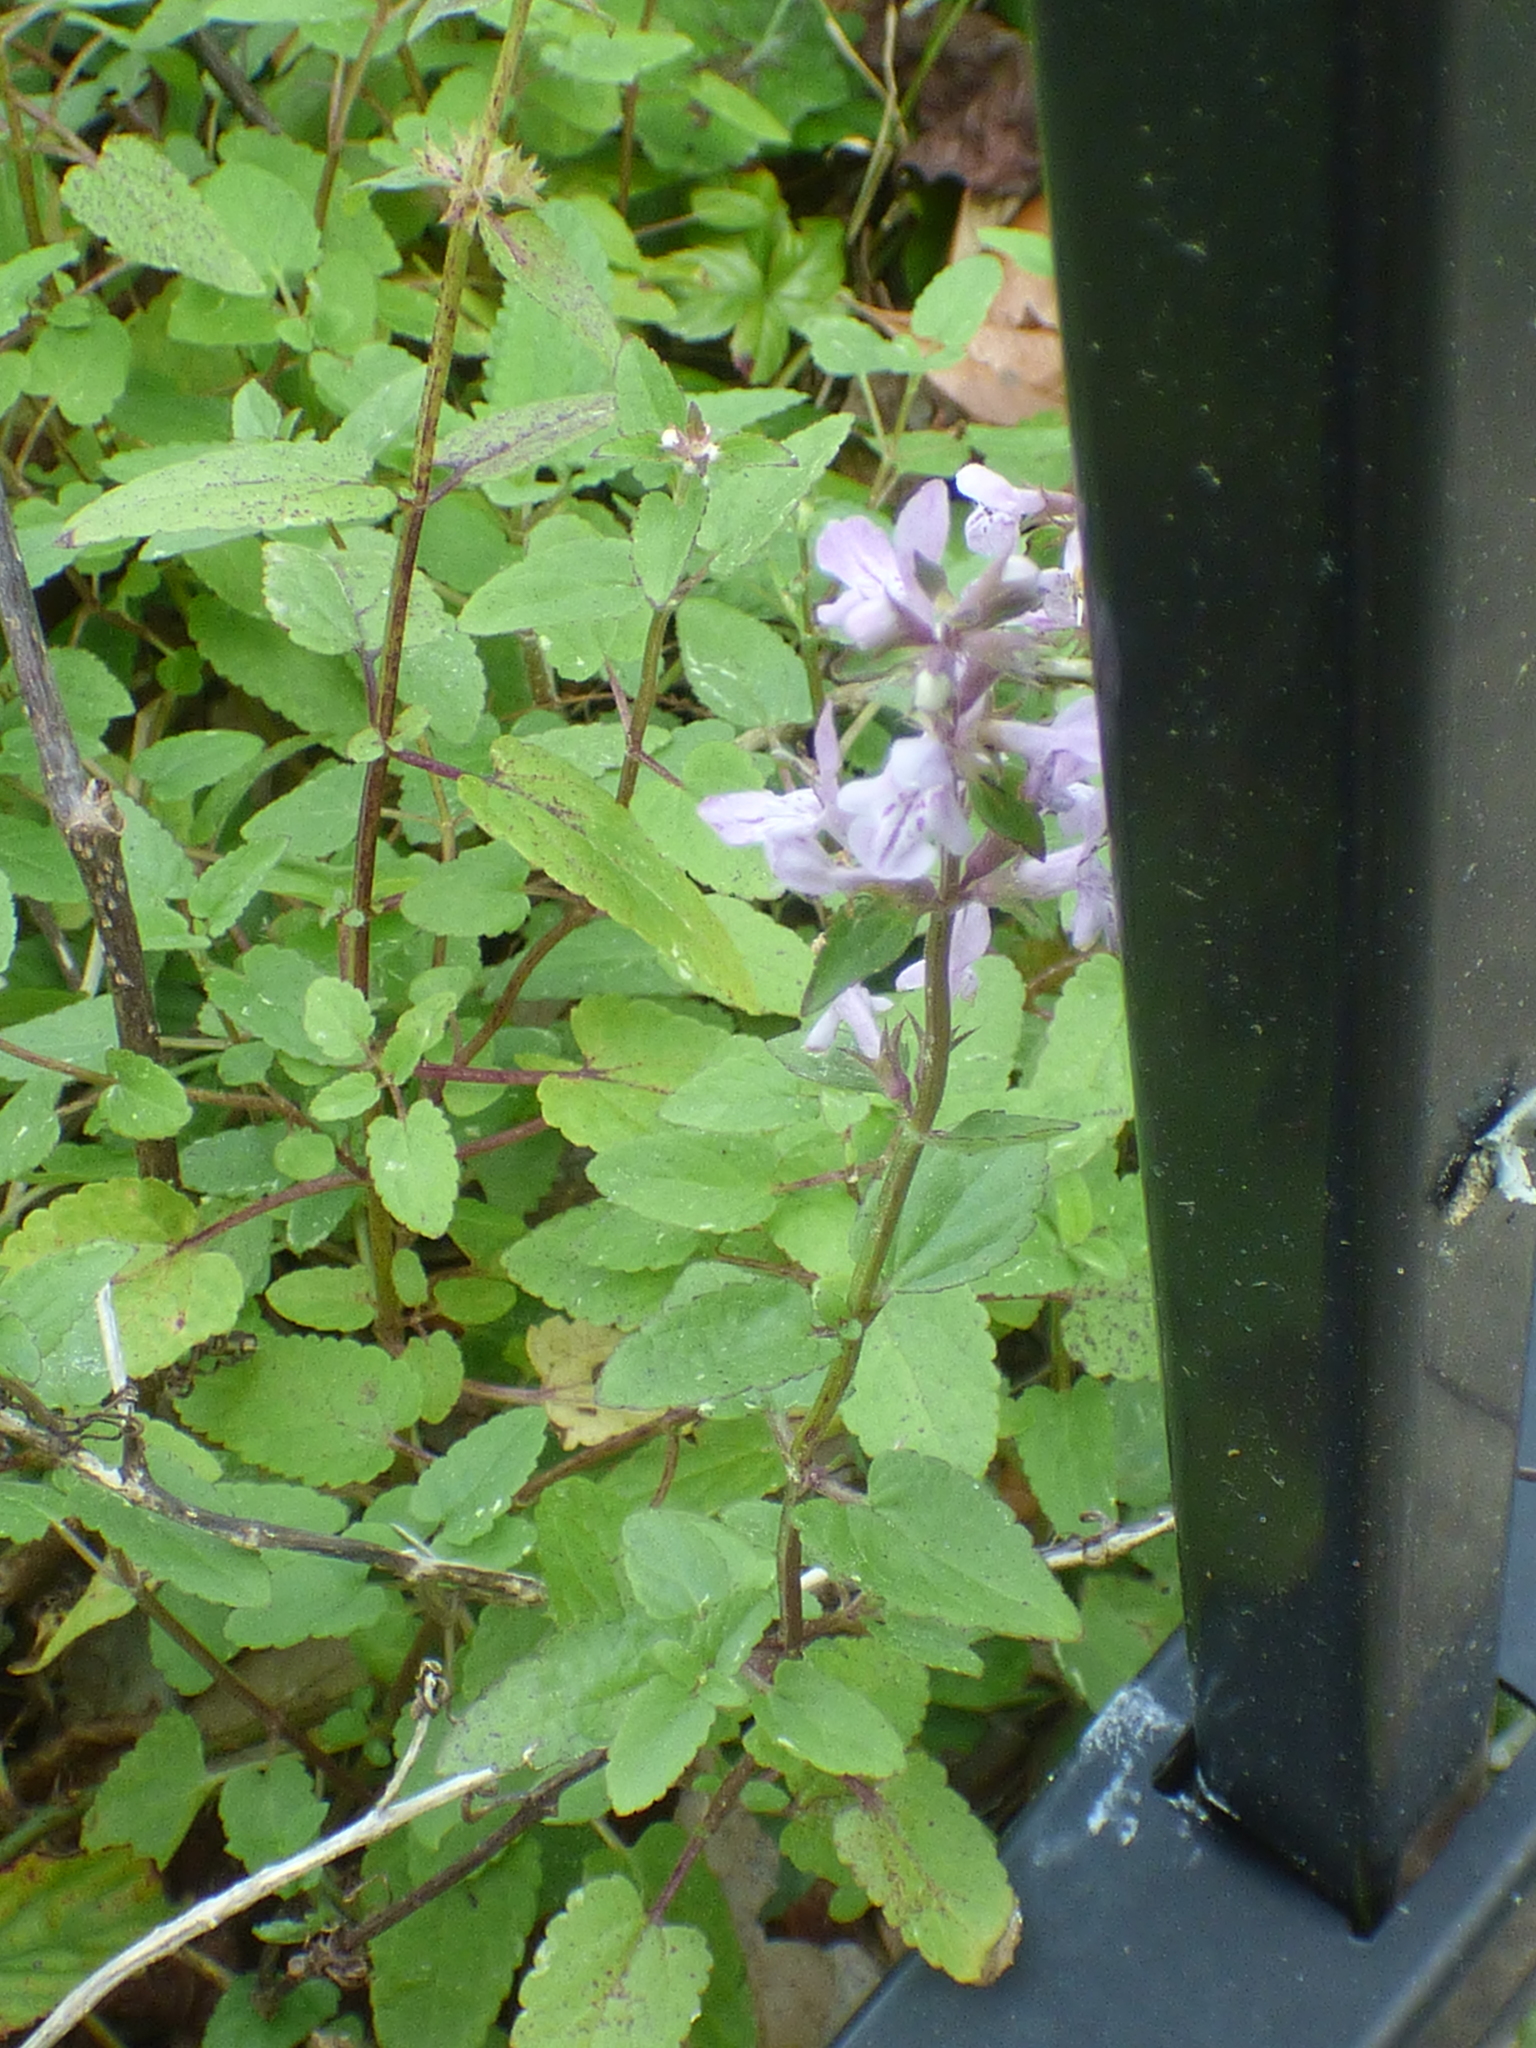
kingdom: Plantae
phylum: Tracheophyta
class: Magnoliopsida
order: Lamiales
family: Lamiaceae
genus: Stachys
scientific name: Stachys floridana
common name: Florida betony
